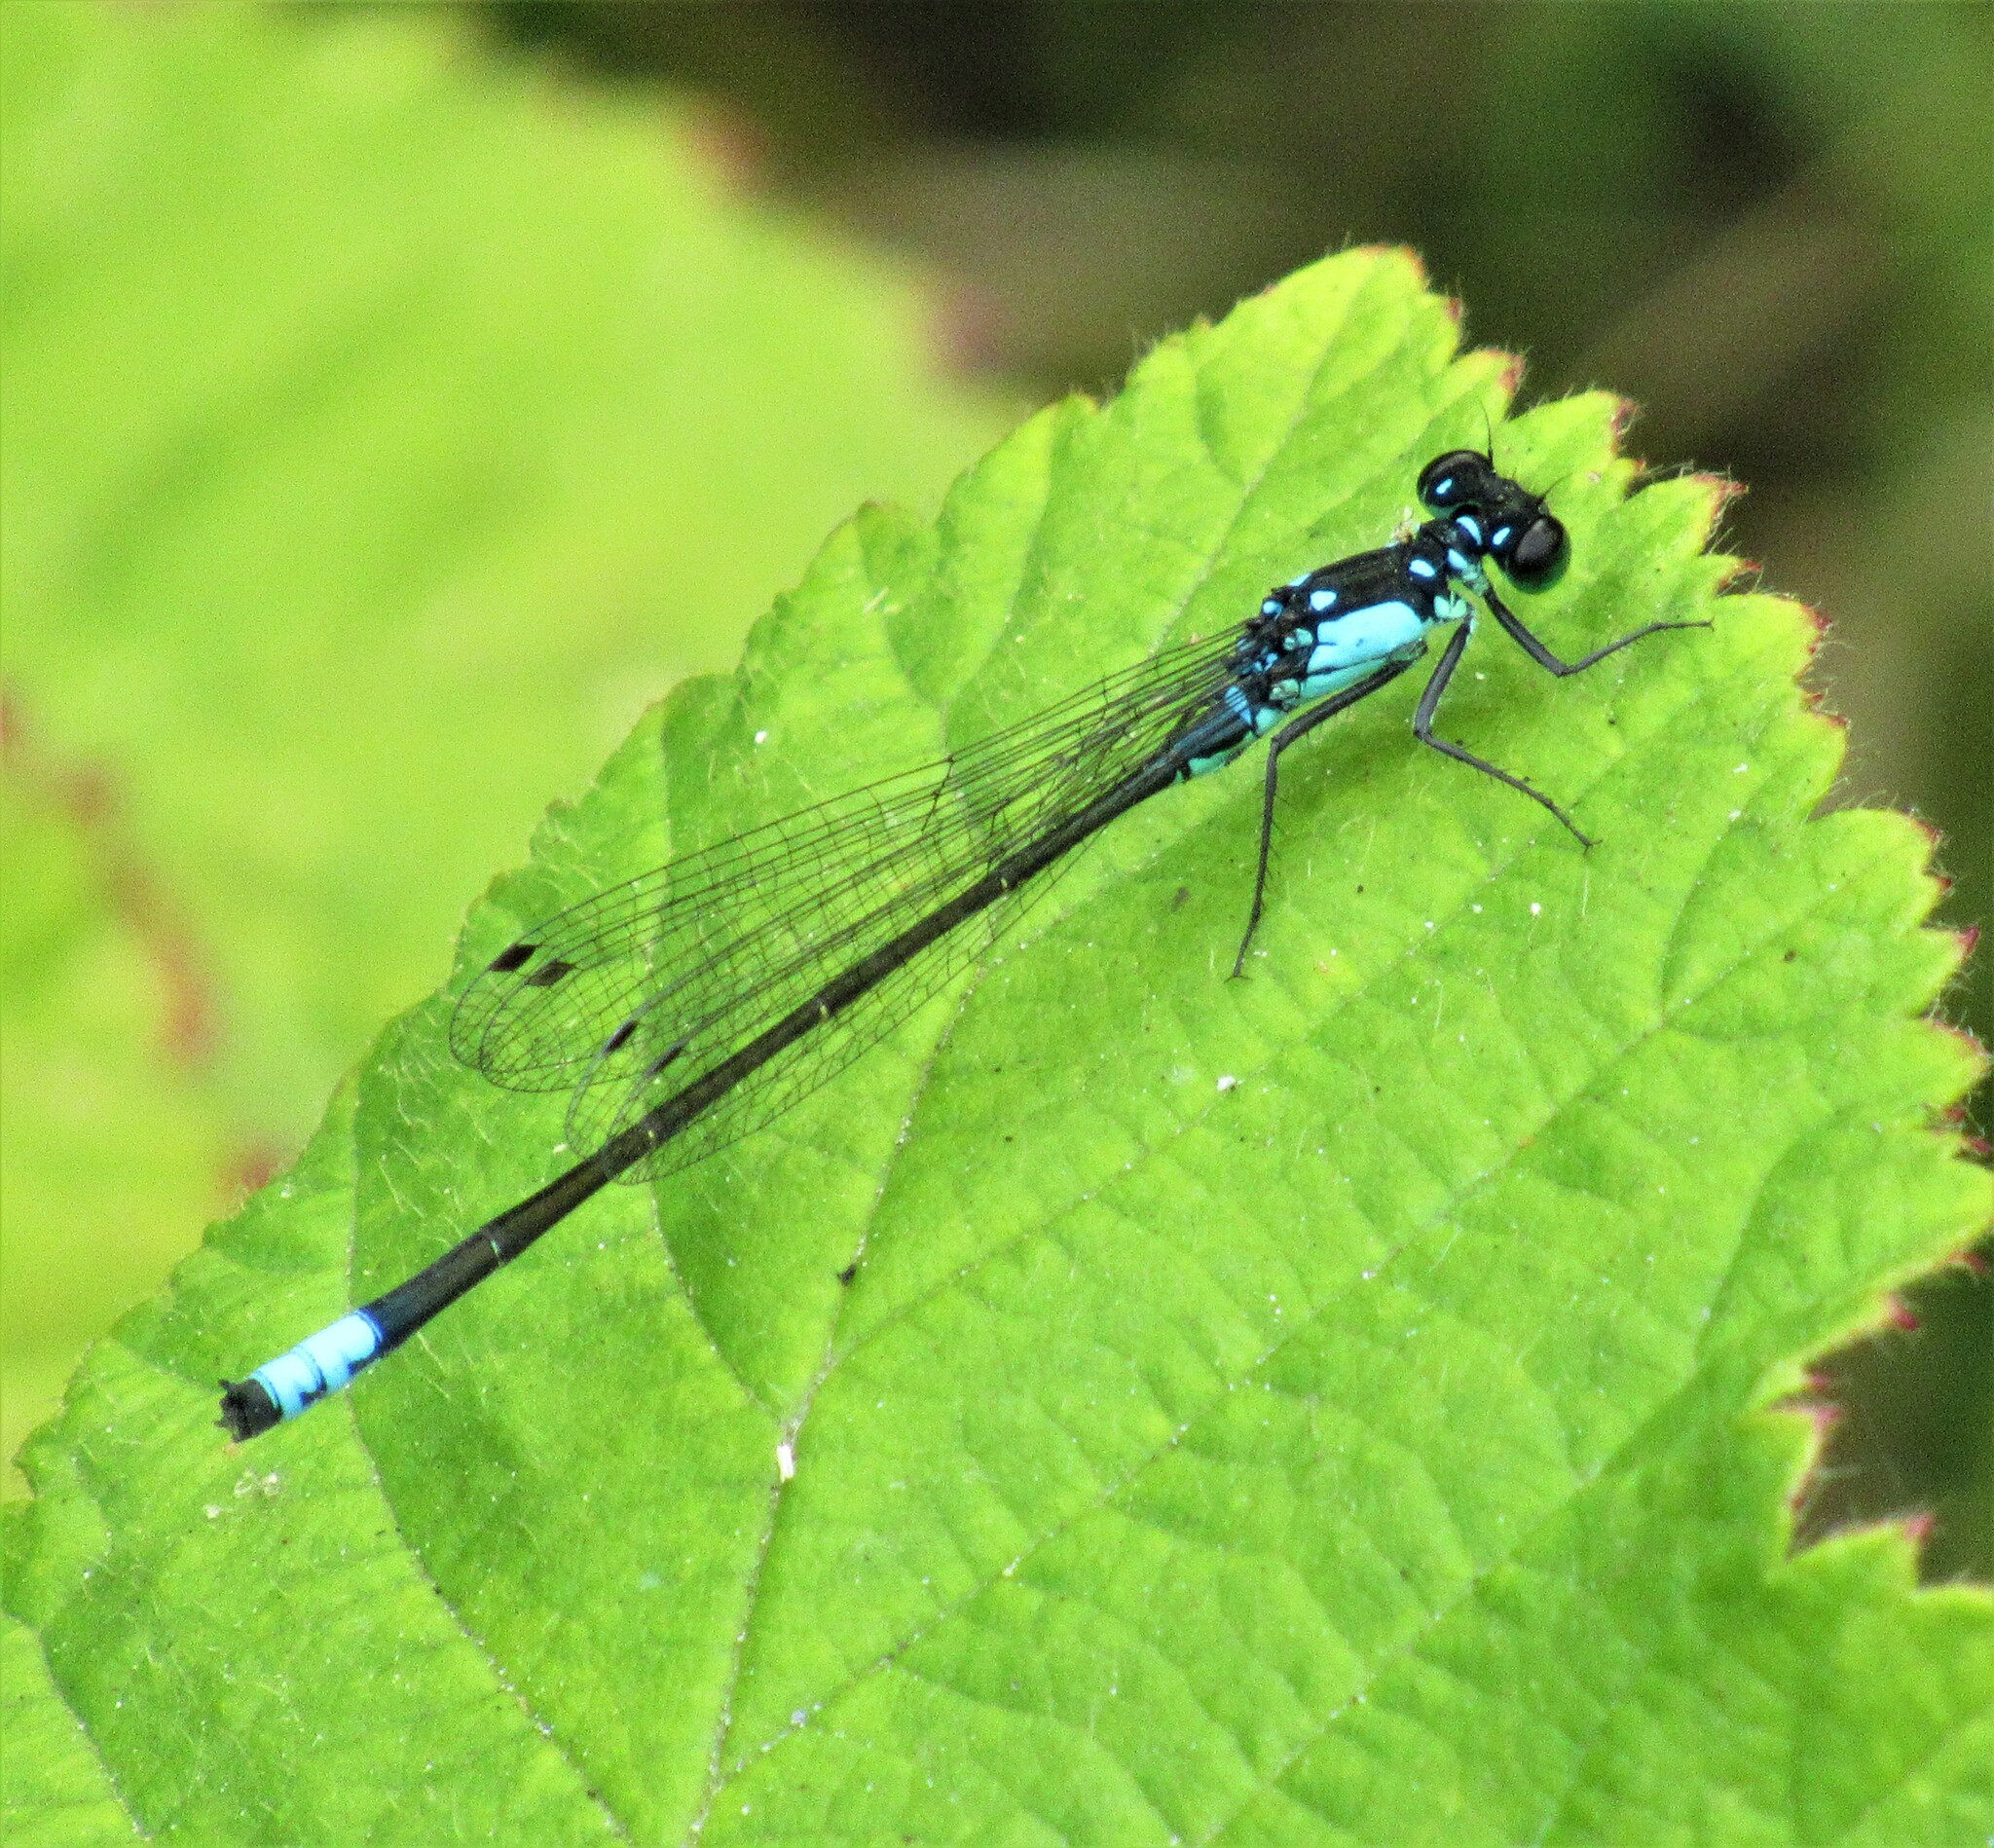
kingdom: Animalia
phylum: Arthropoda
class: Insecta
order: Odonata
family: Coenagrionidae
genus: Ischnura
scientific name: Ischnura cervula
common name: Pacific forktail
